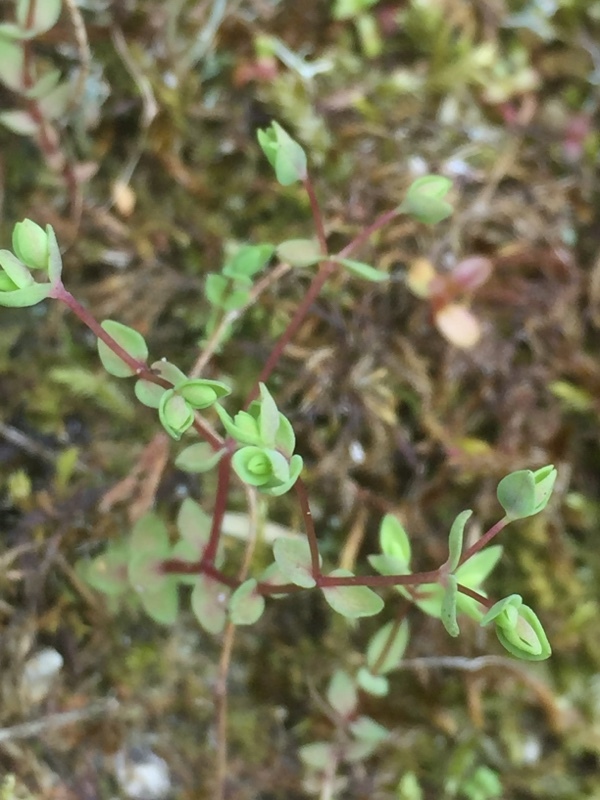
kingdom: Plantae
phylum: Tracheophyta
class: Magnoliopsida
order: Malpighiales
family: Linaceae
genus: Radiola
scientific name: Radiola linoides
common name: Allseed
